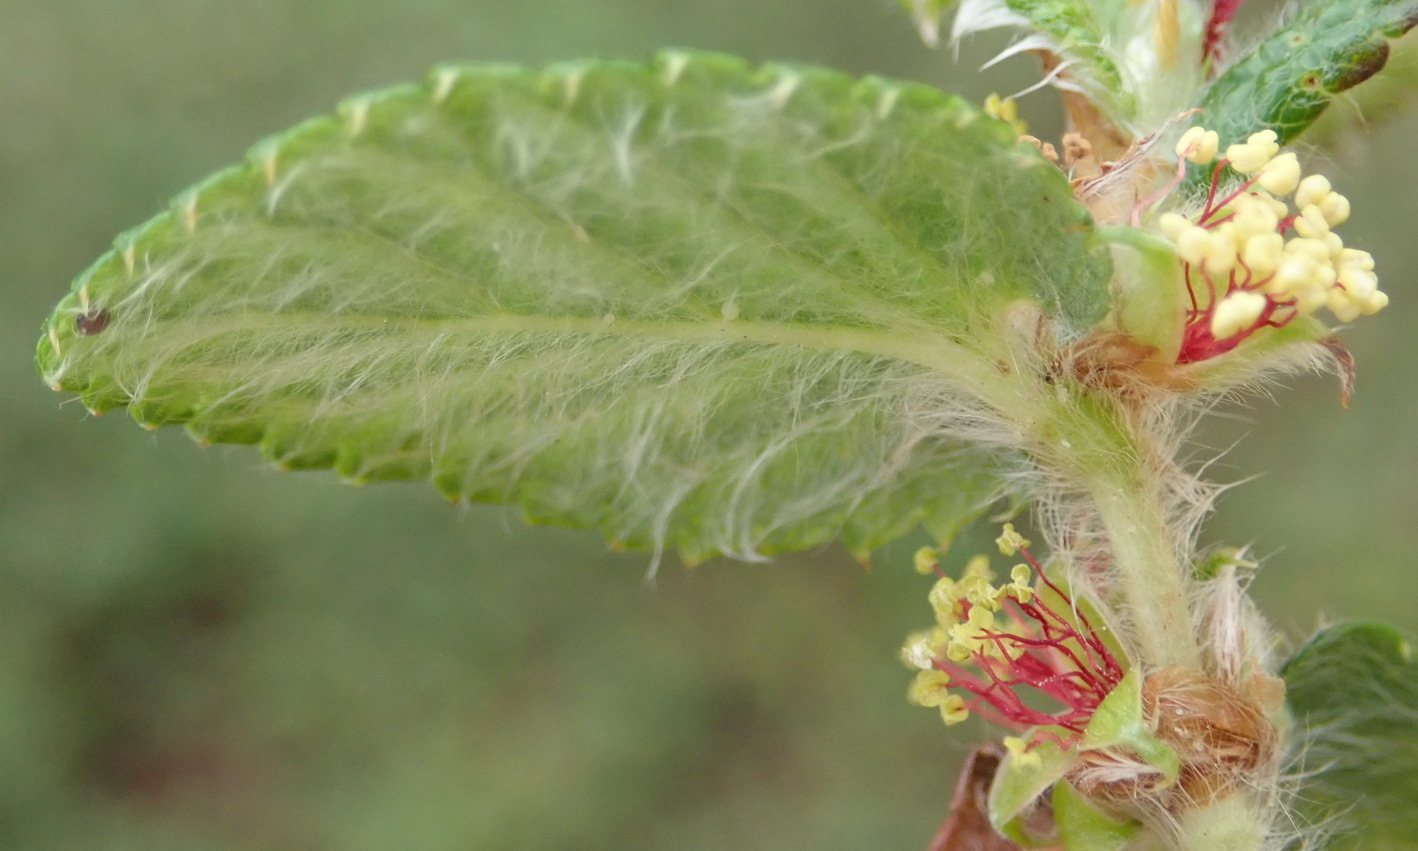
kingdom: Plantae
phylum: Tracheophyta
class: Magnoliopsida
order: Rosales
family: Rosaceae
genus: Cliffortia
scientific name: Cliffortia odorata
